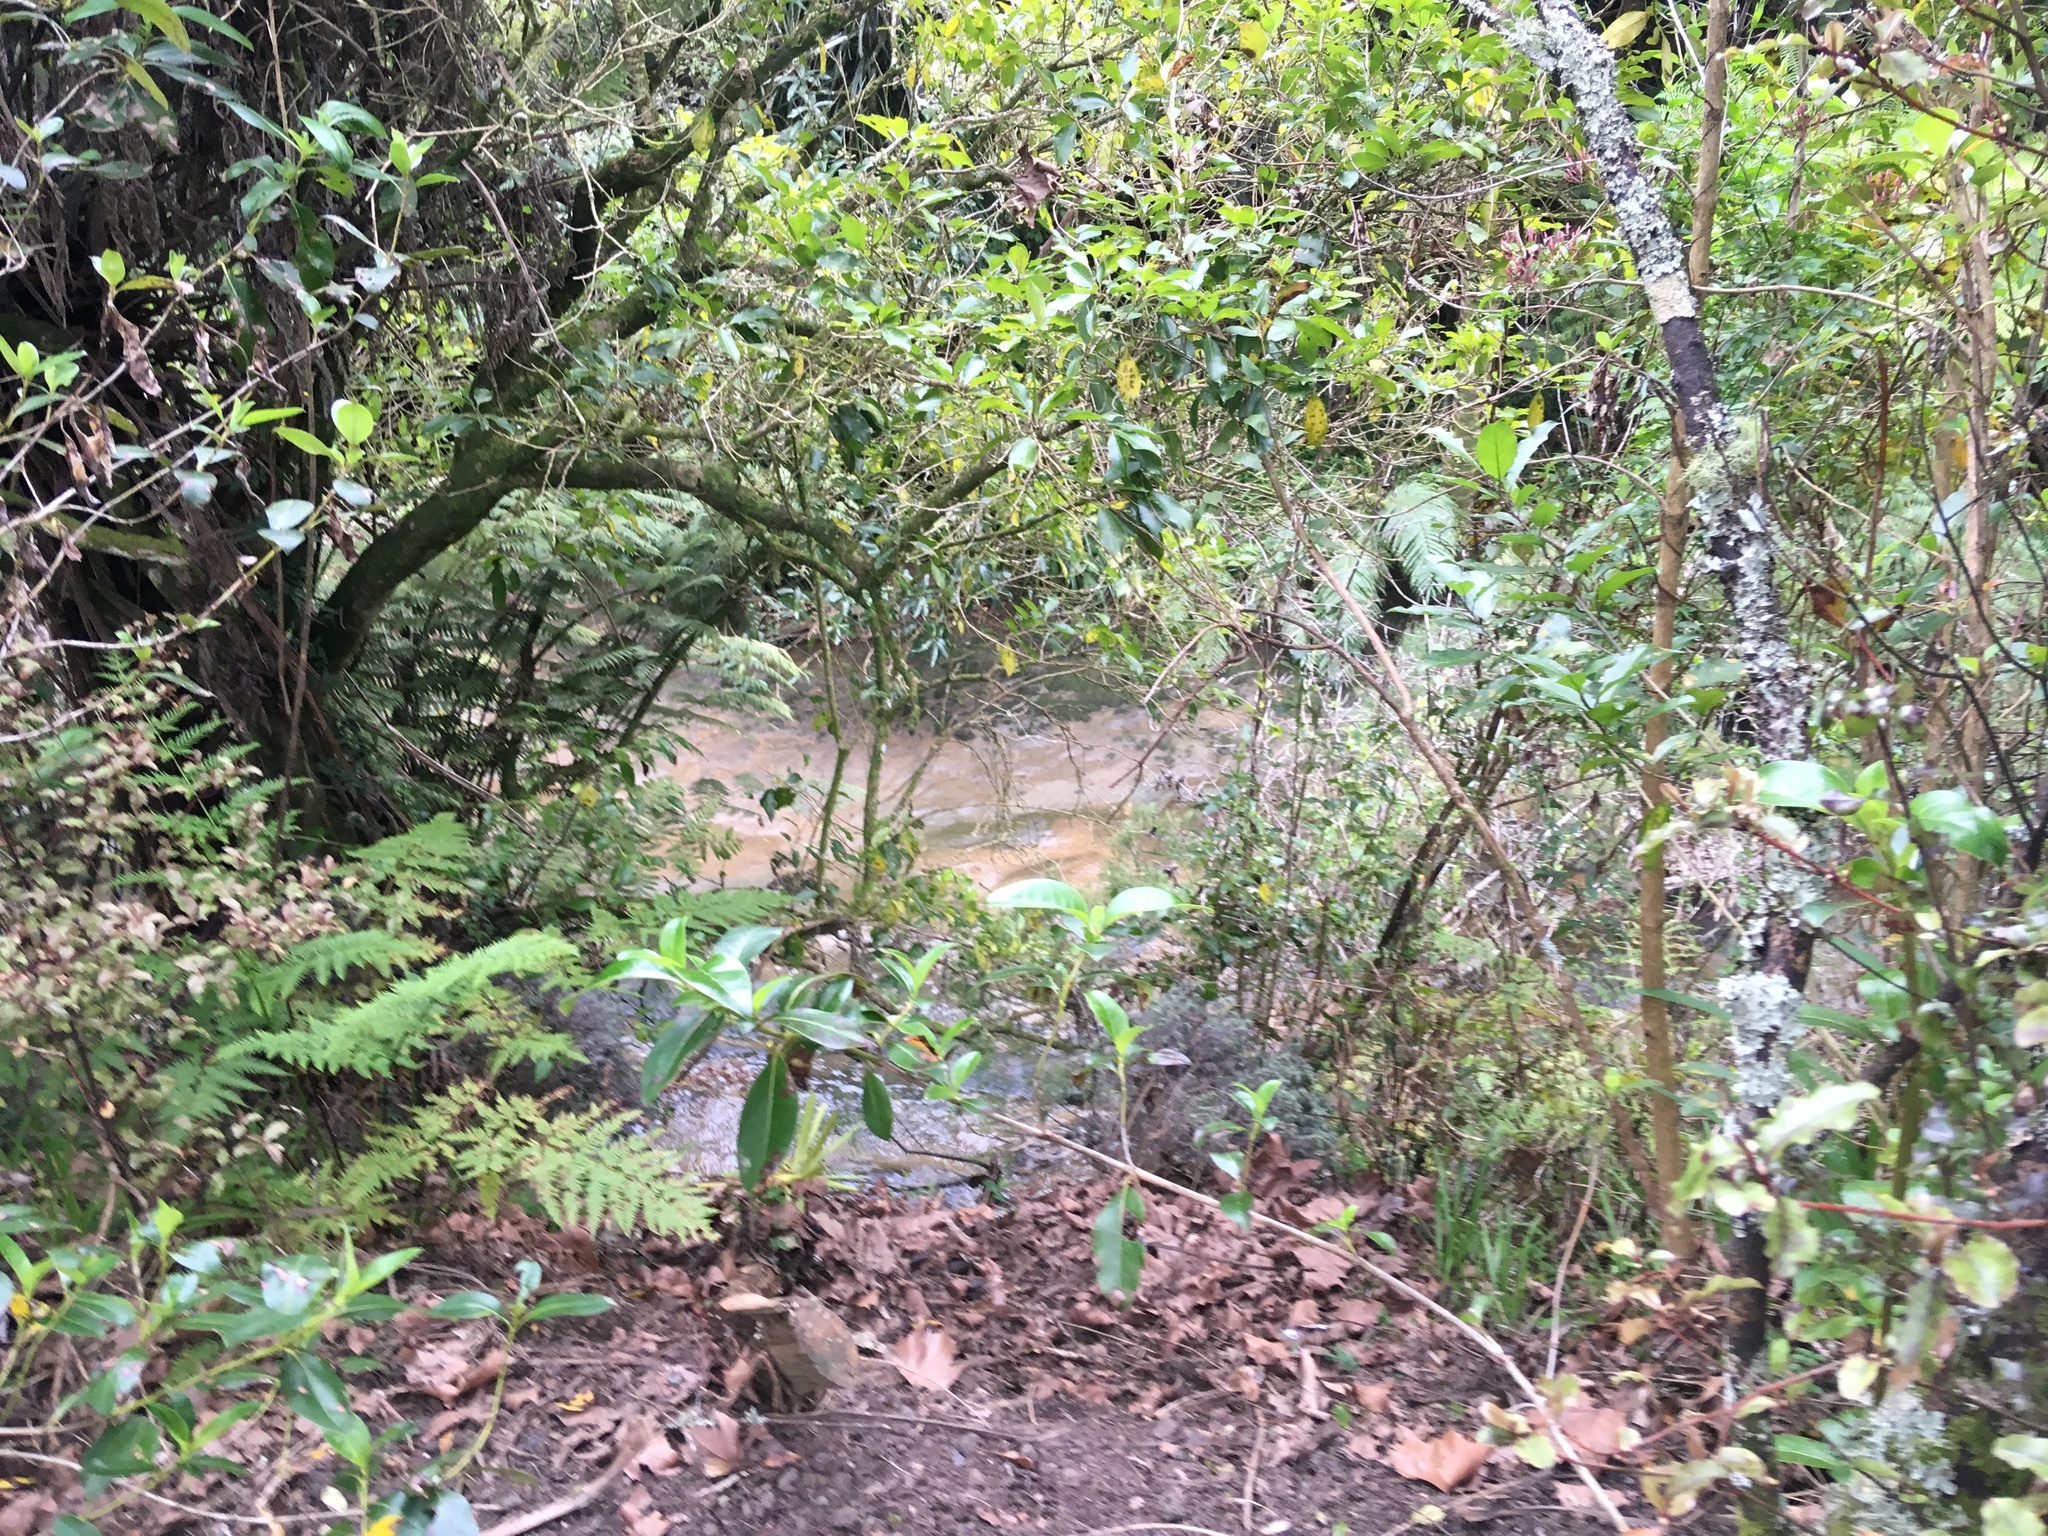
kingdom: Plantae
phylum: Tracheophyta
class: Magnoliopsida
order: Gentianales
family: Rubiaceae
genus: Coprosma
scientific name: Coprosma robusta
